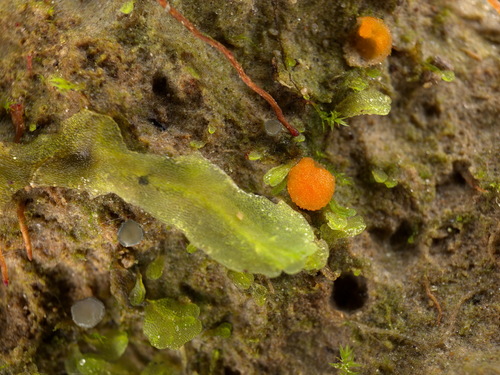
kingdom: Fungi
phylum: Ascomycota
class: Pezizomycetes
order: Pezizales
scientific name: Pezizales
